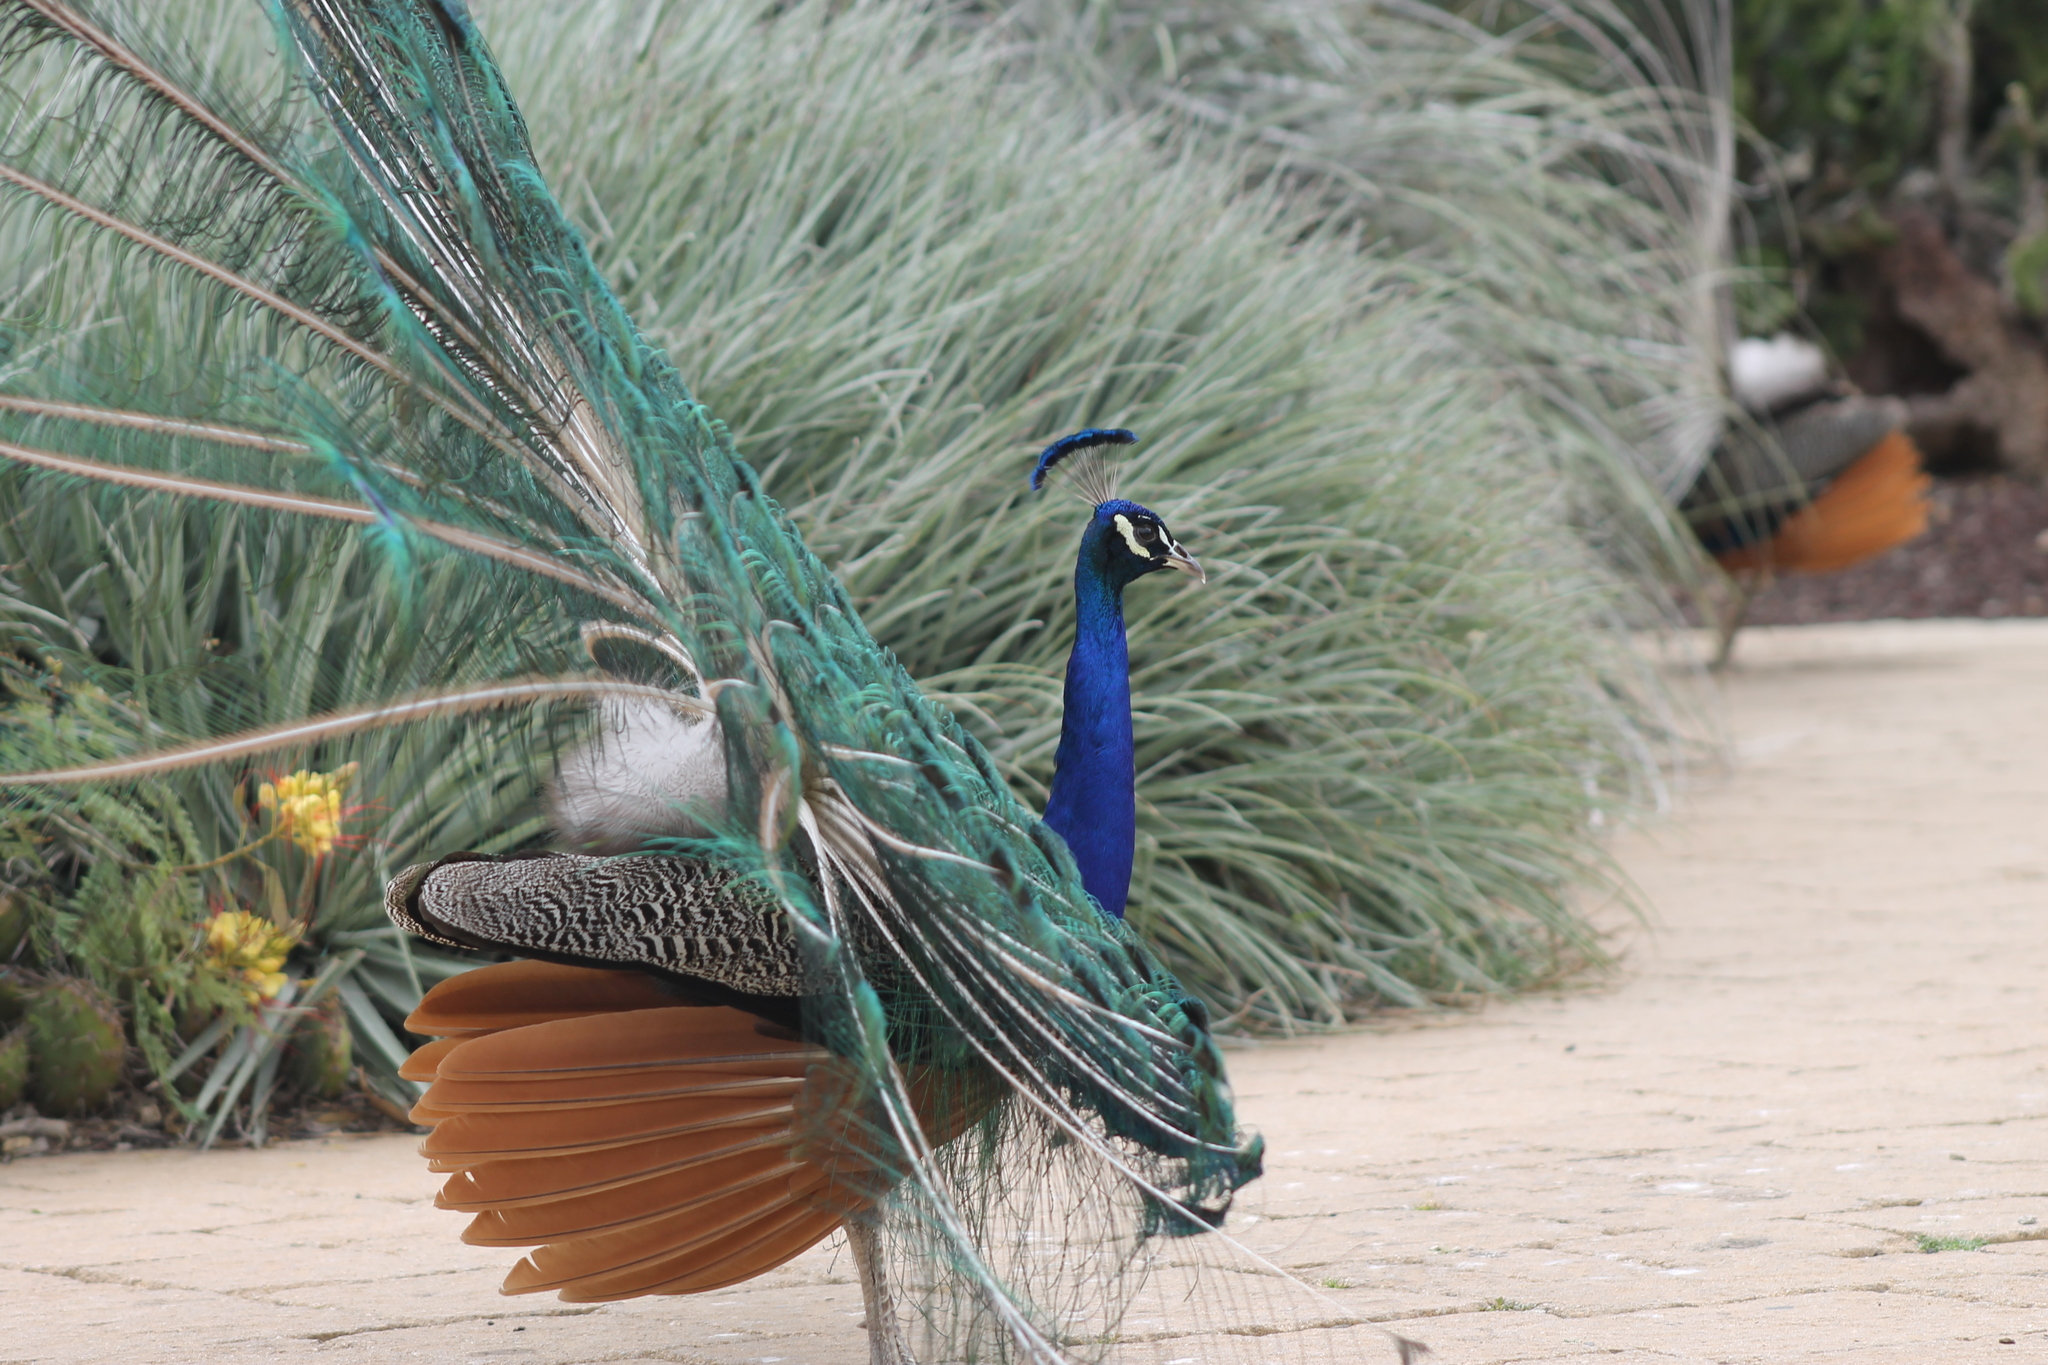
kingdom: Animalia
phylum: Chordata
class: Aves
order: Galliformes
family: Phasianidae
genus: Pavo
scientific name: Pavo cristatus
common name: Indian peafowl
